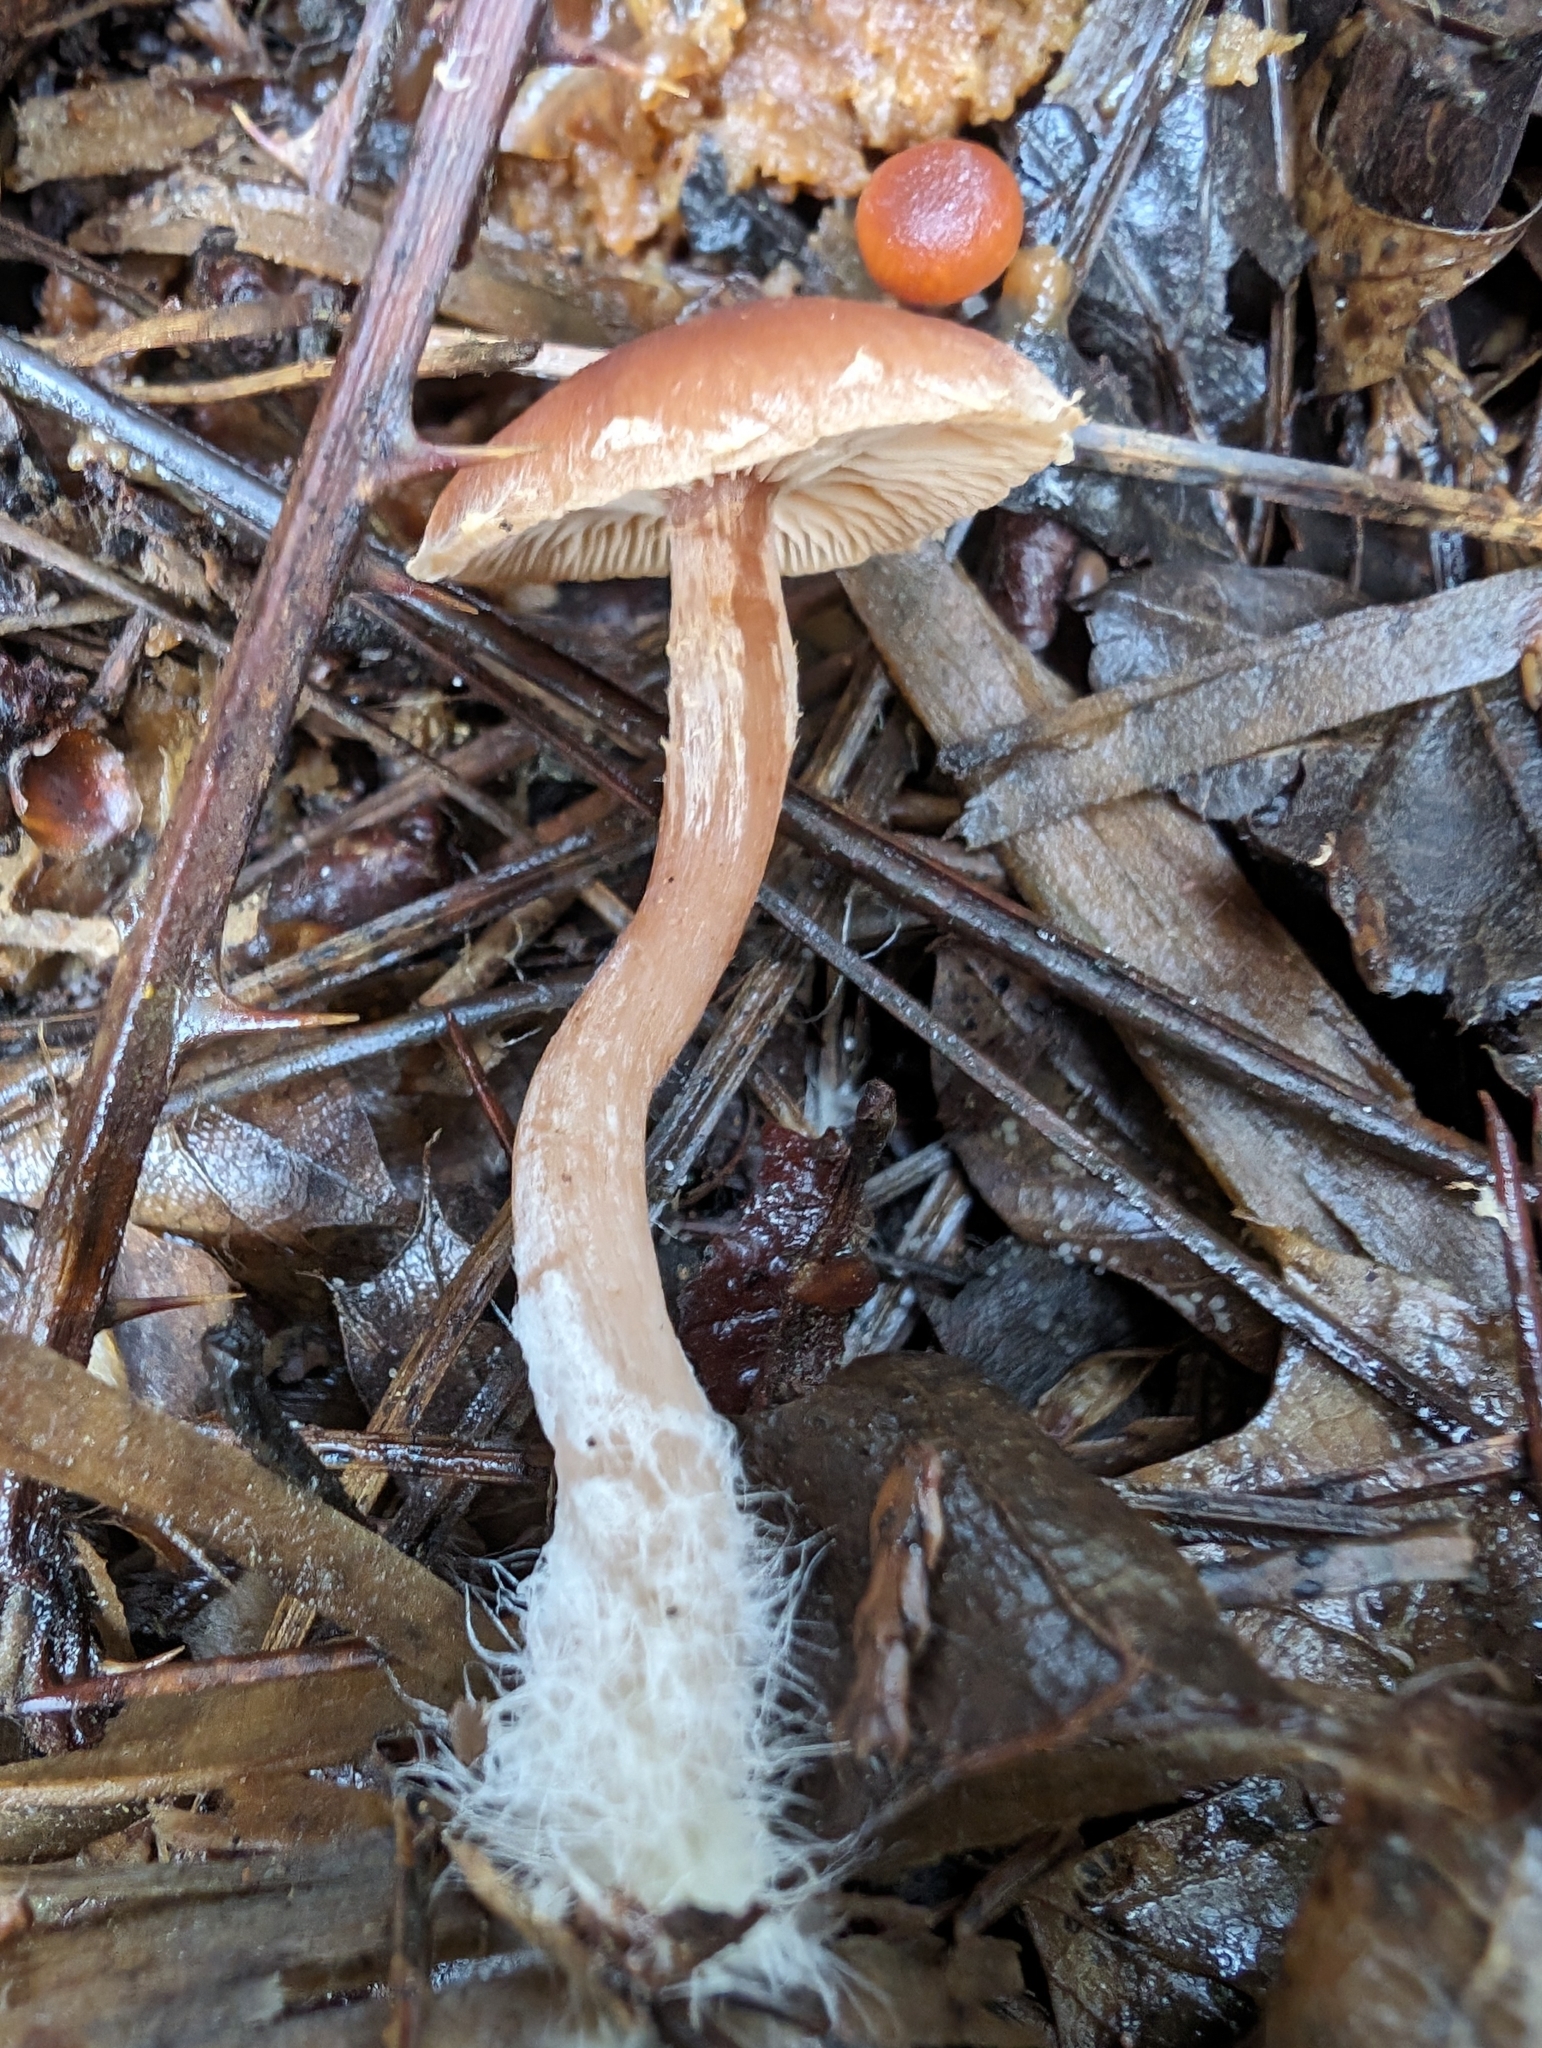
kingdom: Fungi
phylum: Basidiomycota
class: Agaricomycetes
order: Agaricales
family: Tubariaceae
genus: Tubaria
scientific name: Tubaria furfuracea
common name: Scurfy twiglet
